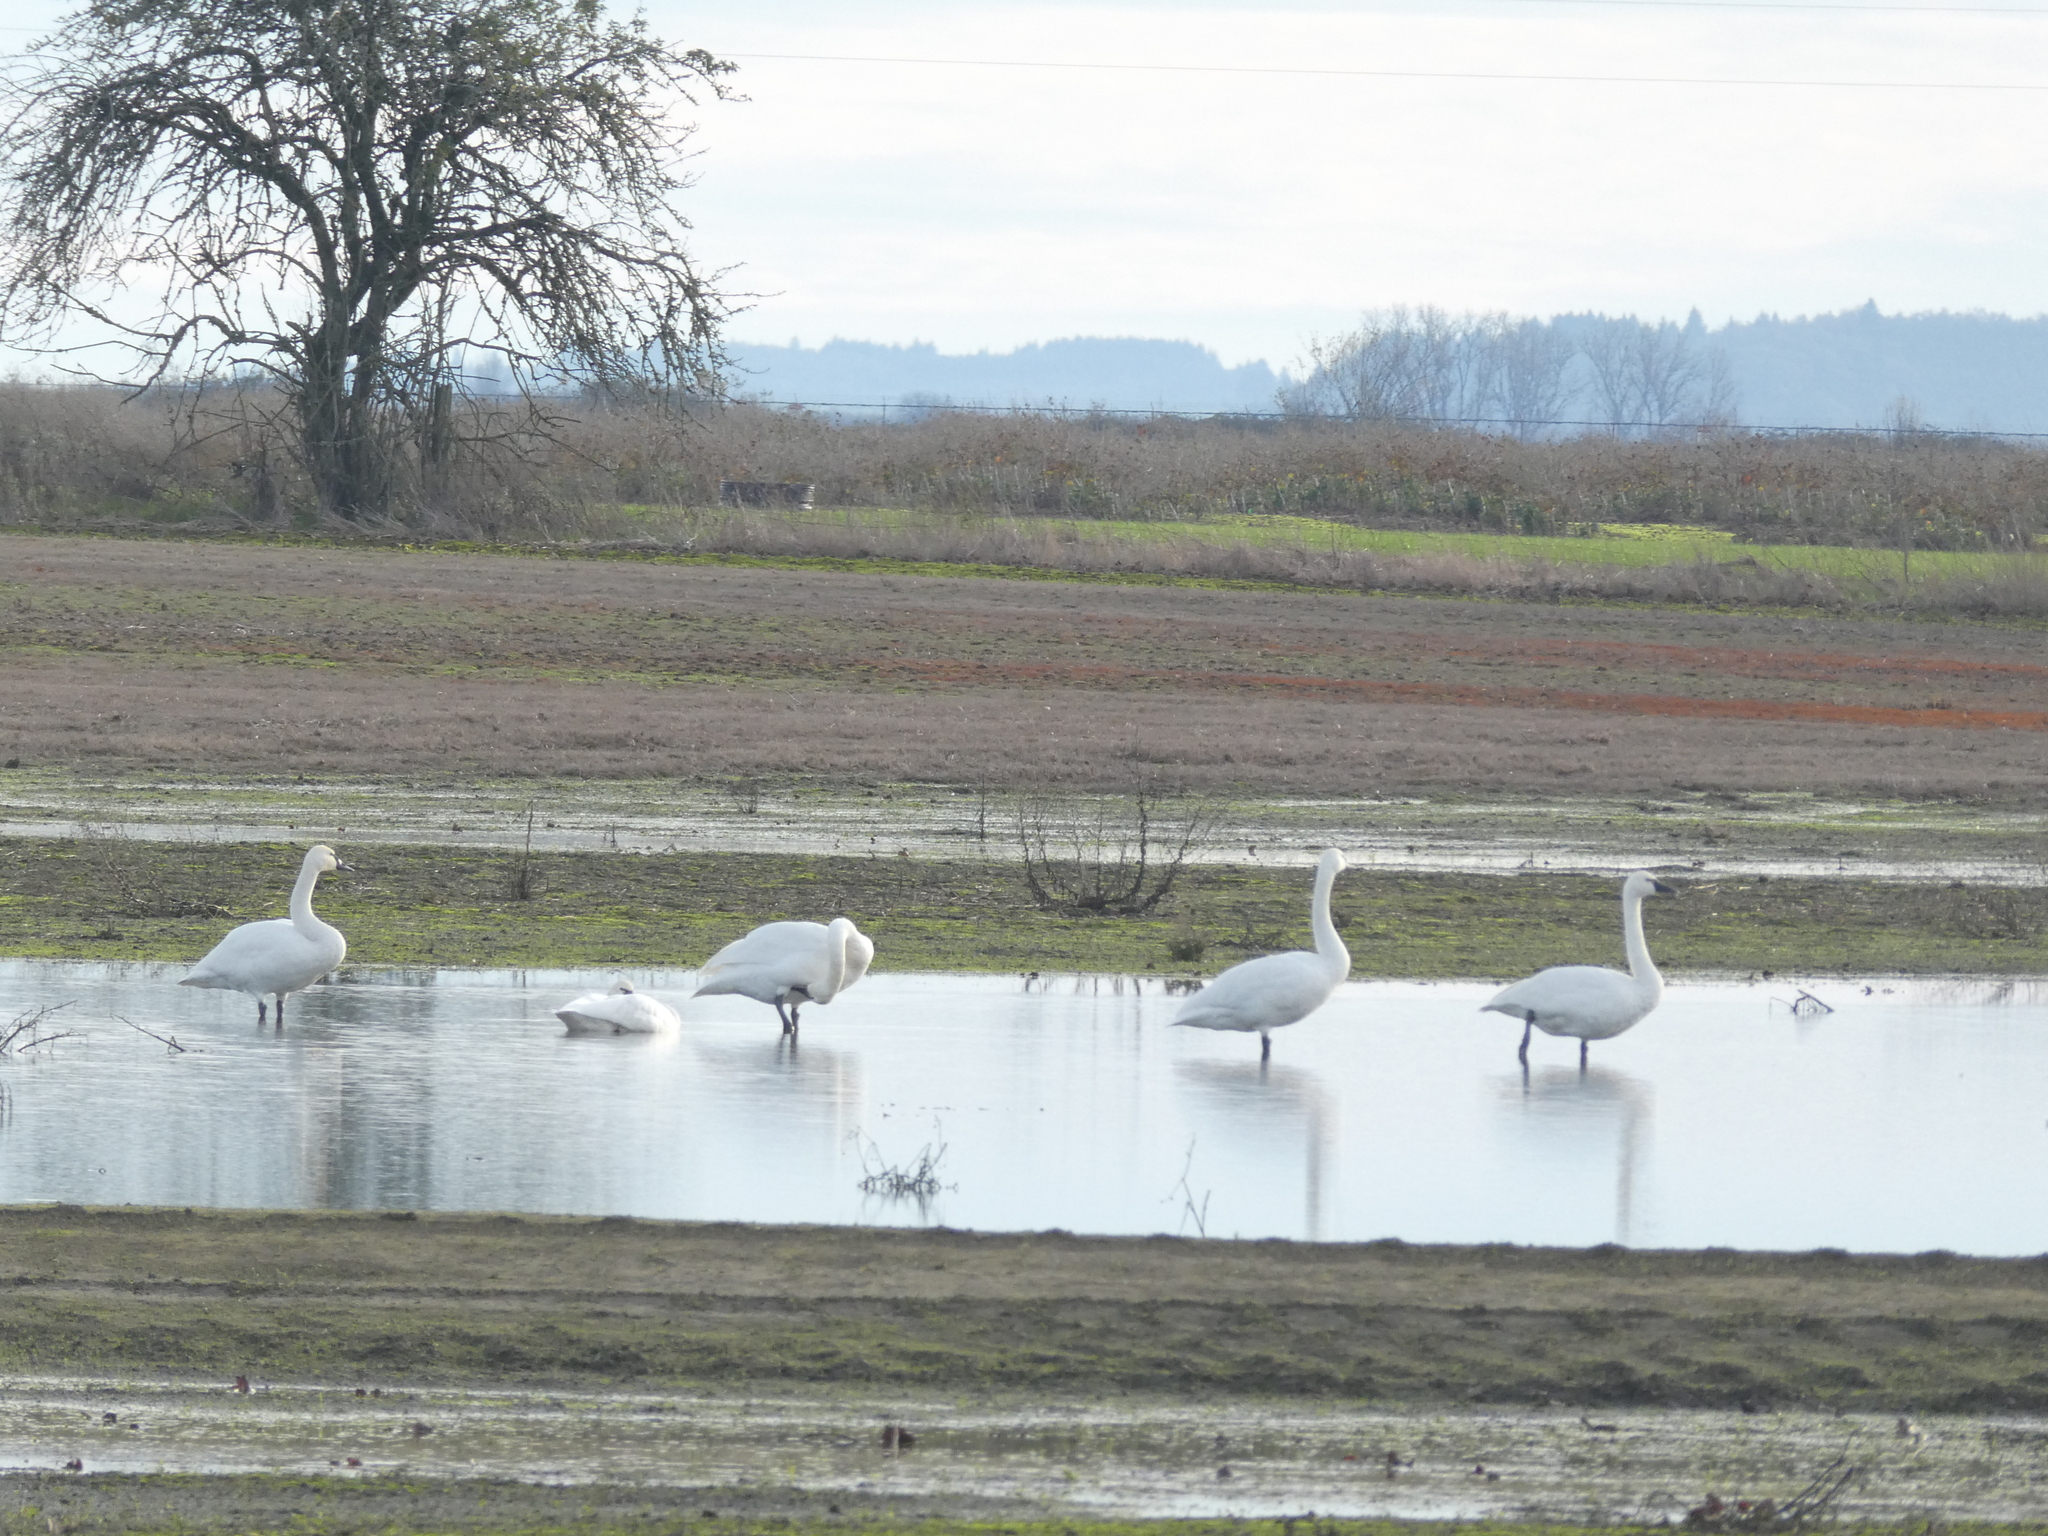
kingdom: Animalia
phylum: Chordata
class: Aves
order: Anseriformes
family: Anatidae
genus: Cygnus
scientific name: Cygnus columbianus
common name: Tundra swan
